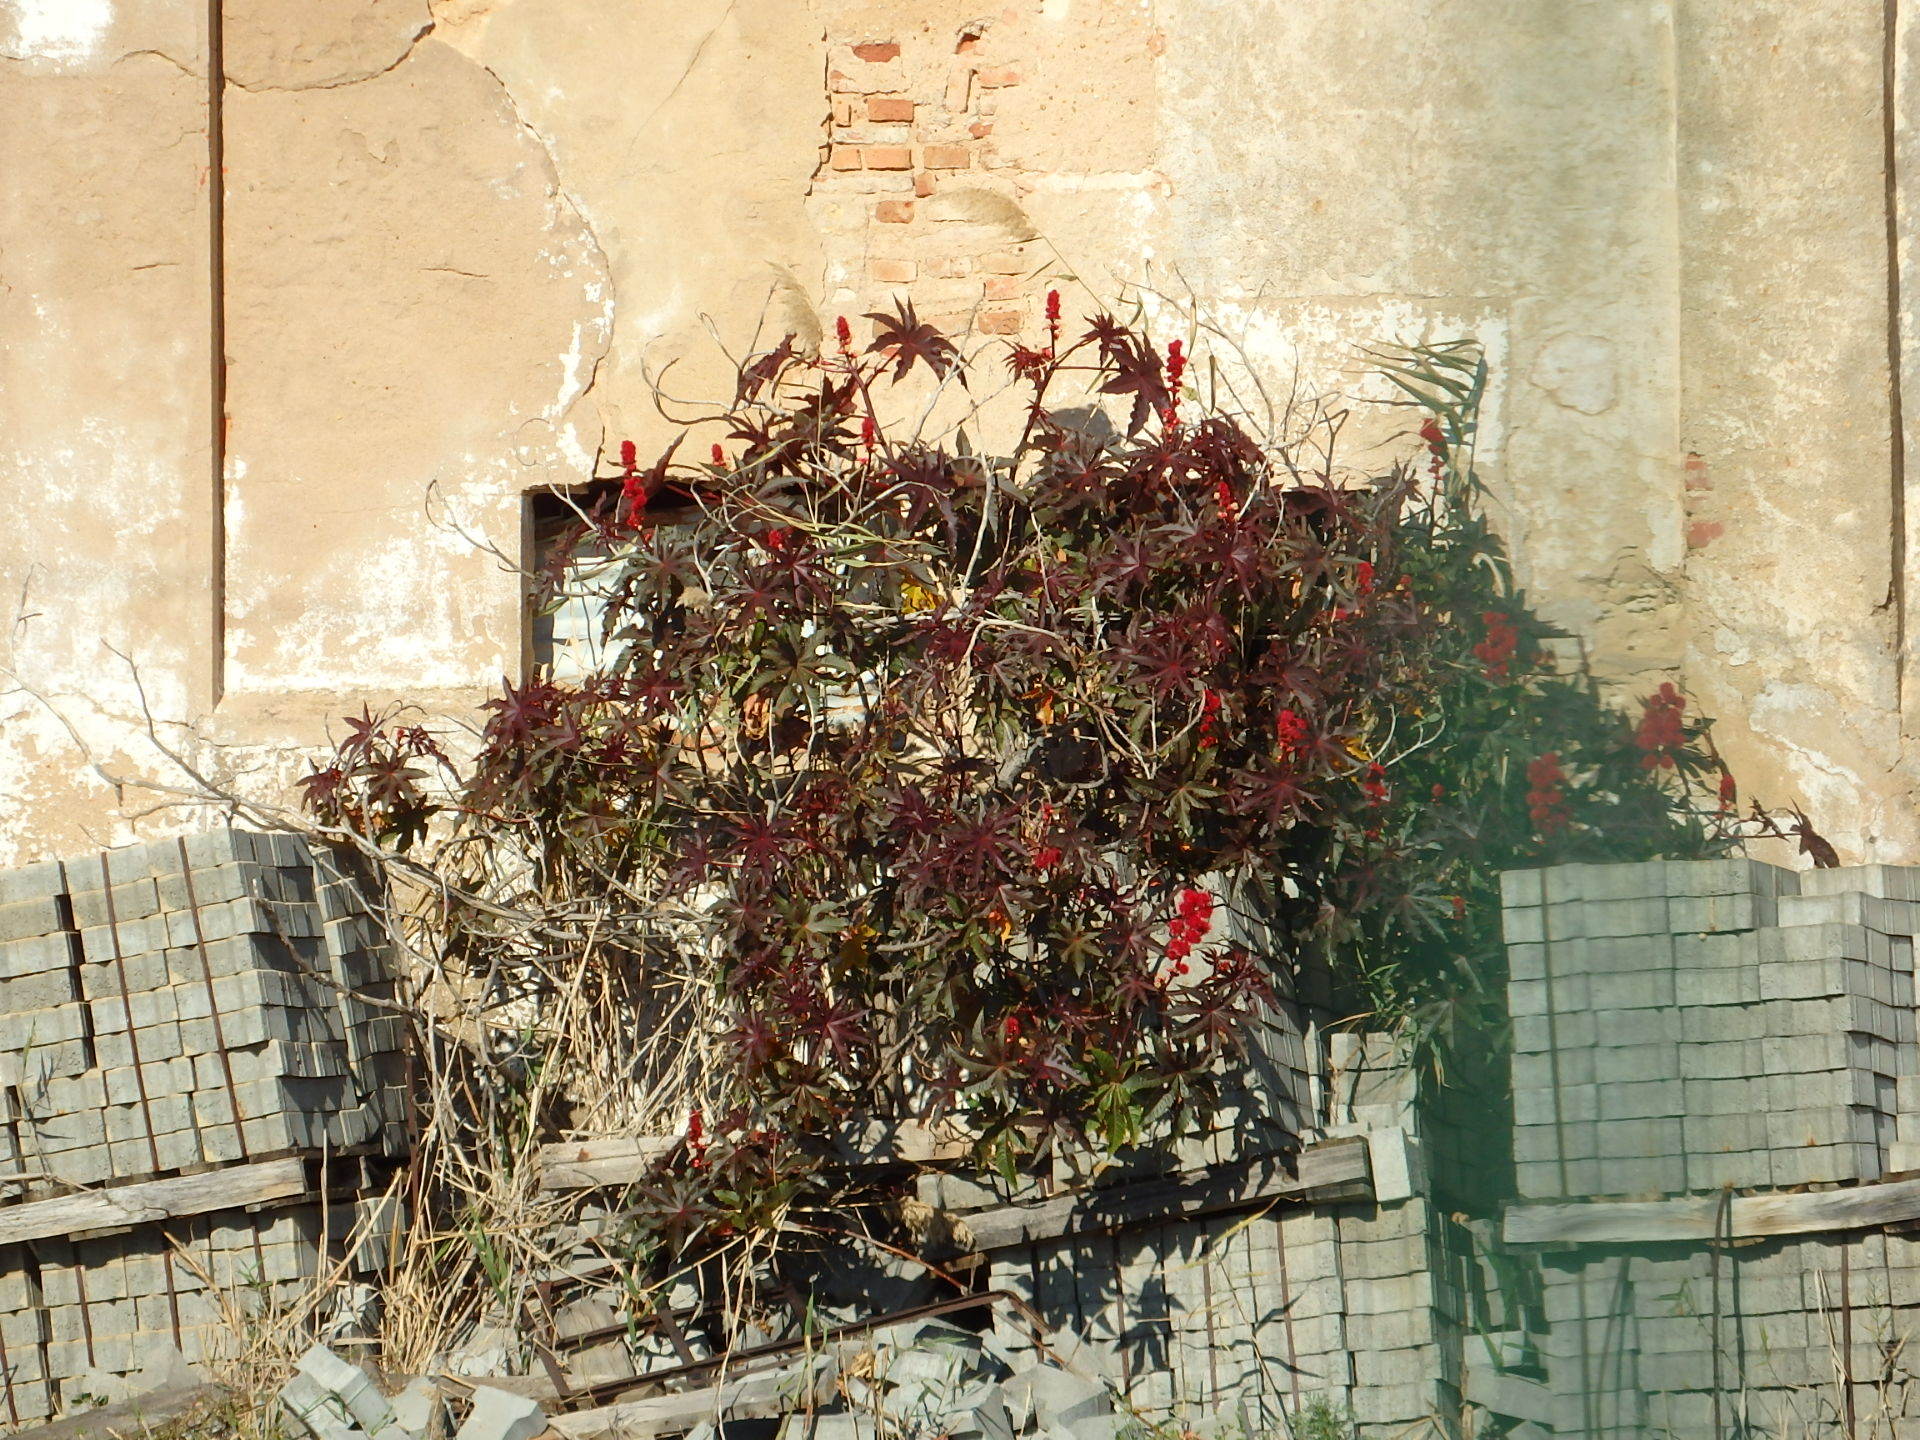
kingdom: Plantae
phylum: Tracheophyta
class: Magnoliopsida
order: Malpighiales
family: Euphorbiaceae
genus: Ricinus
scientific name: Ricinus communis
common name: Castor-oil-plant
